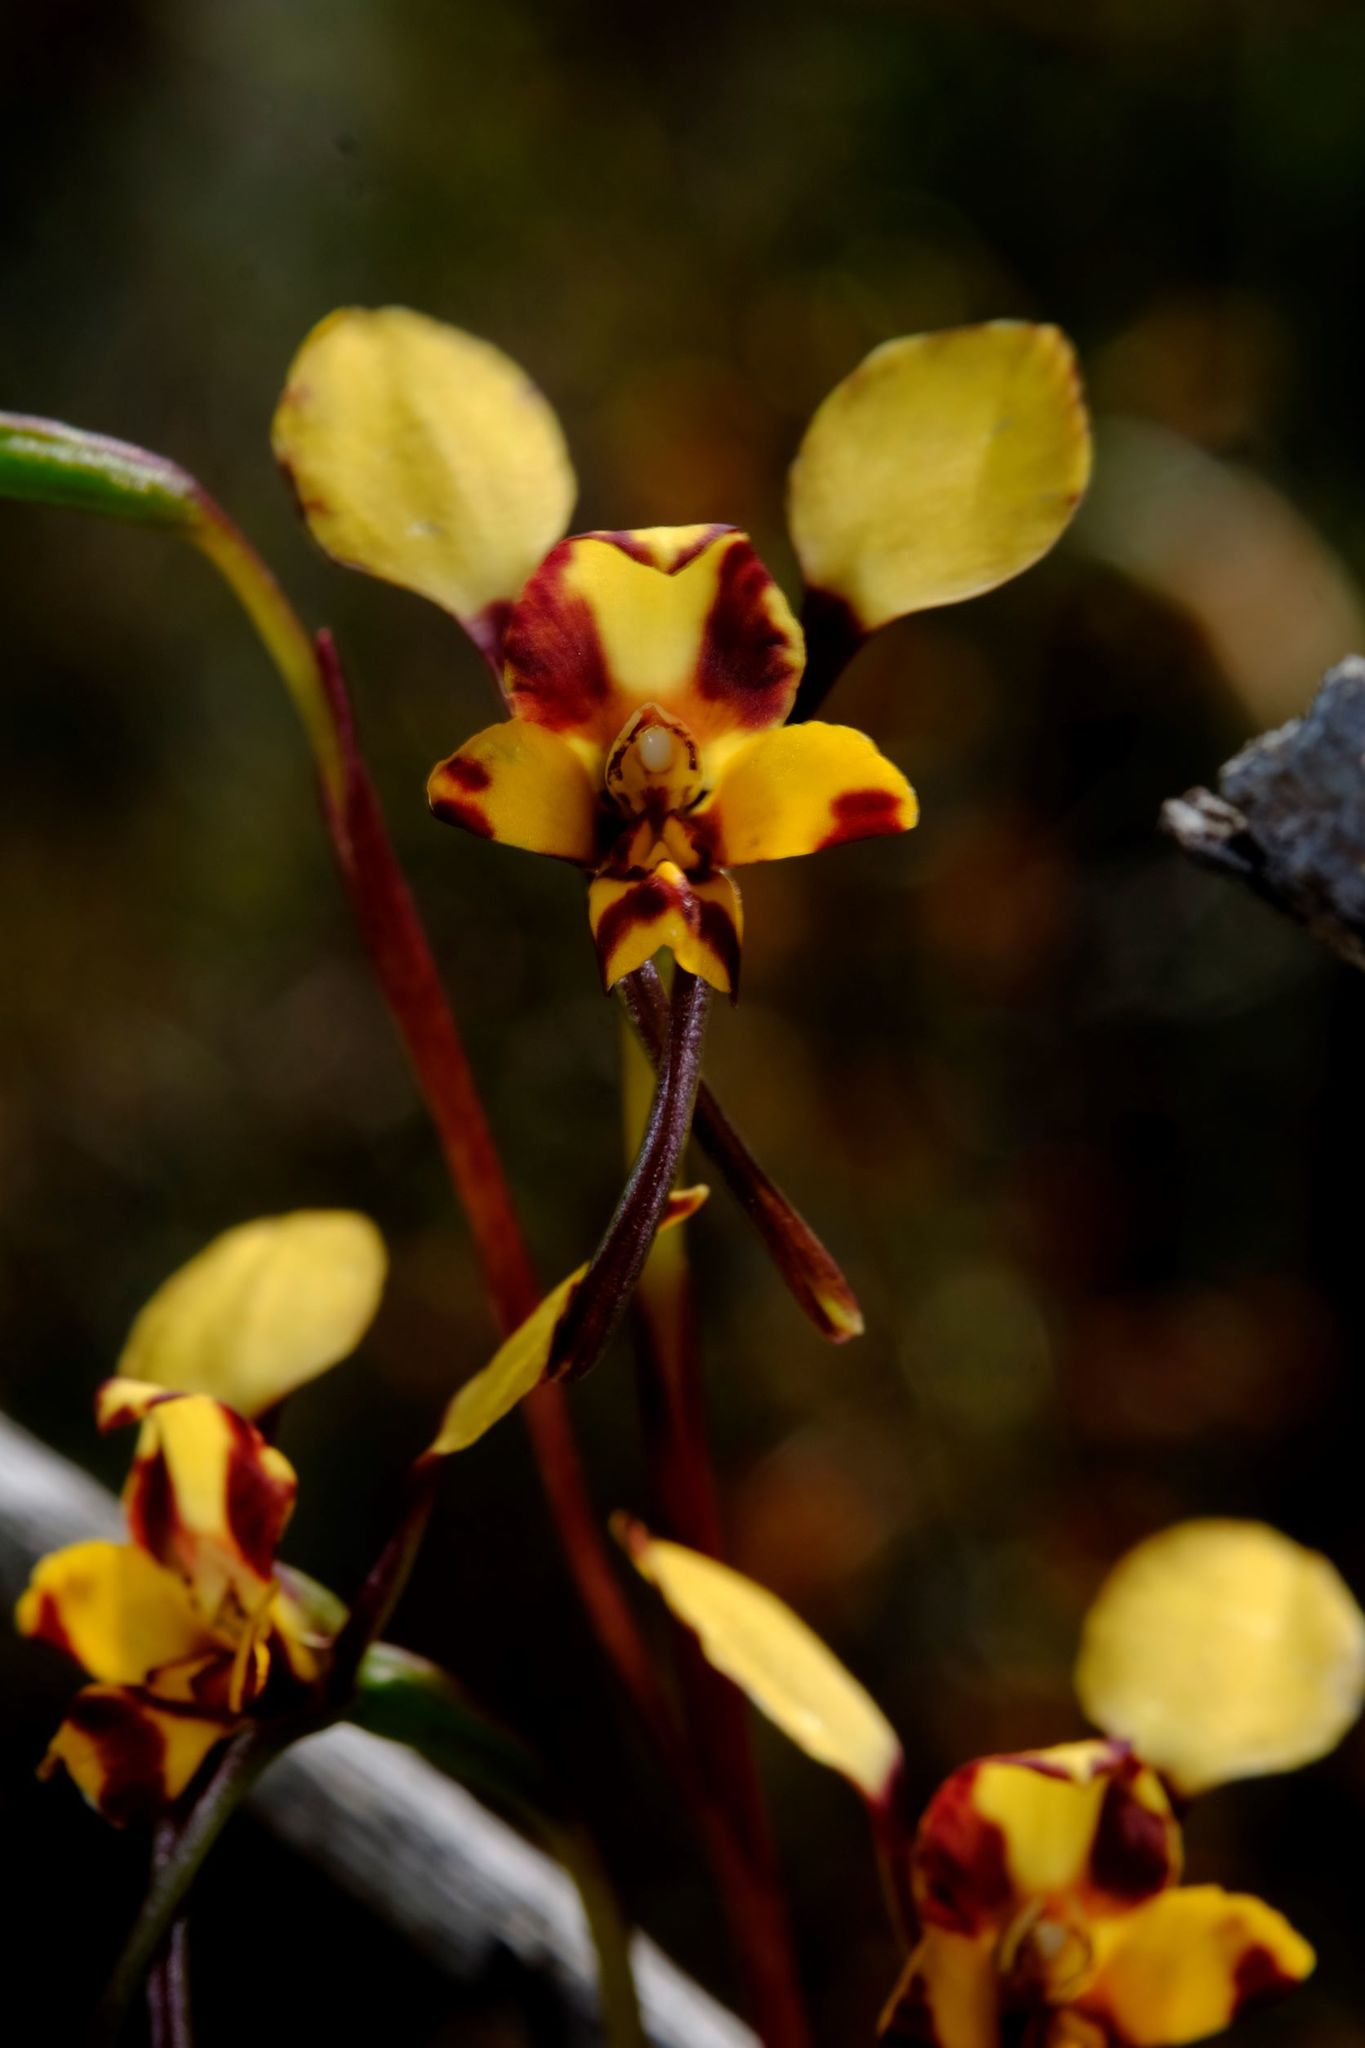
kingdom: Plantae
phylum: Tracheophyta
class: Liliopsida
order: Asparagales
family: Orchidaceae
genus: Diuris
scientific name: Diuris pardina
